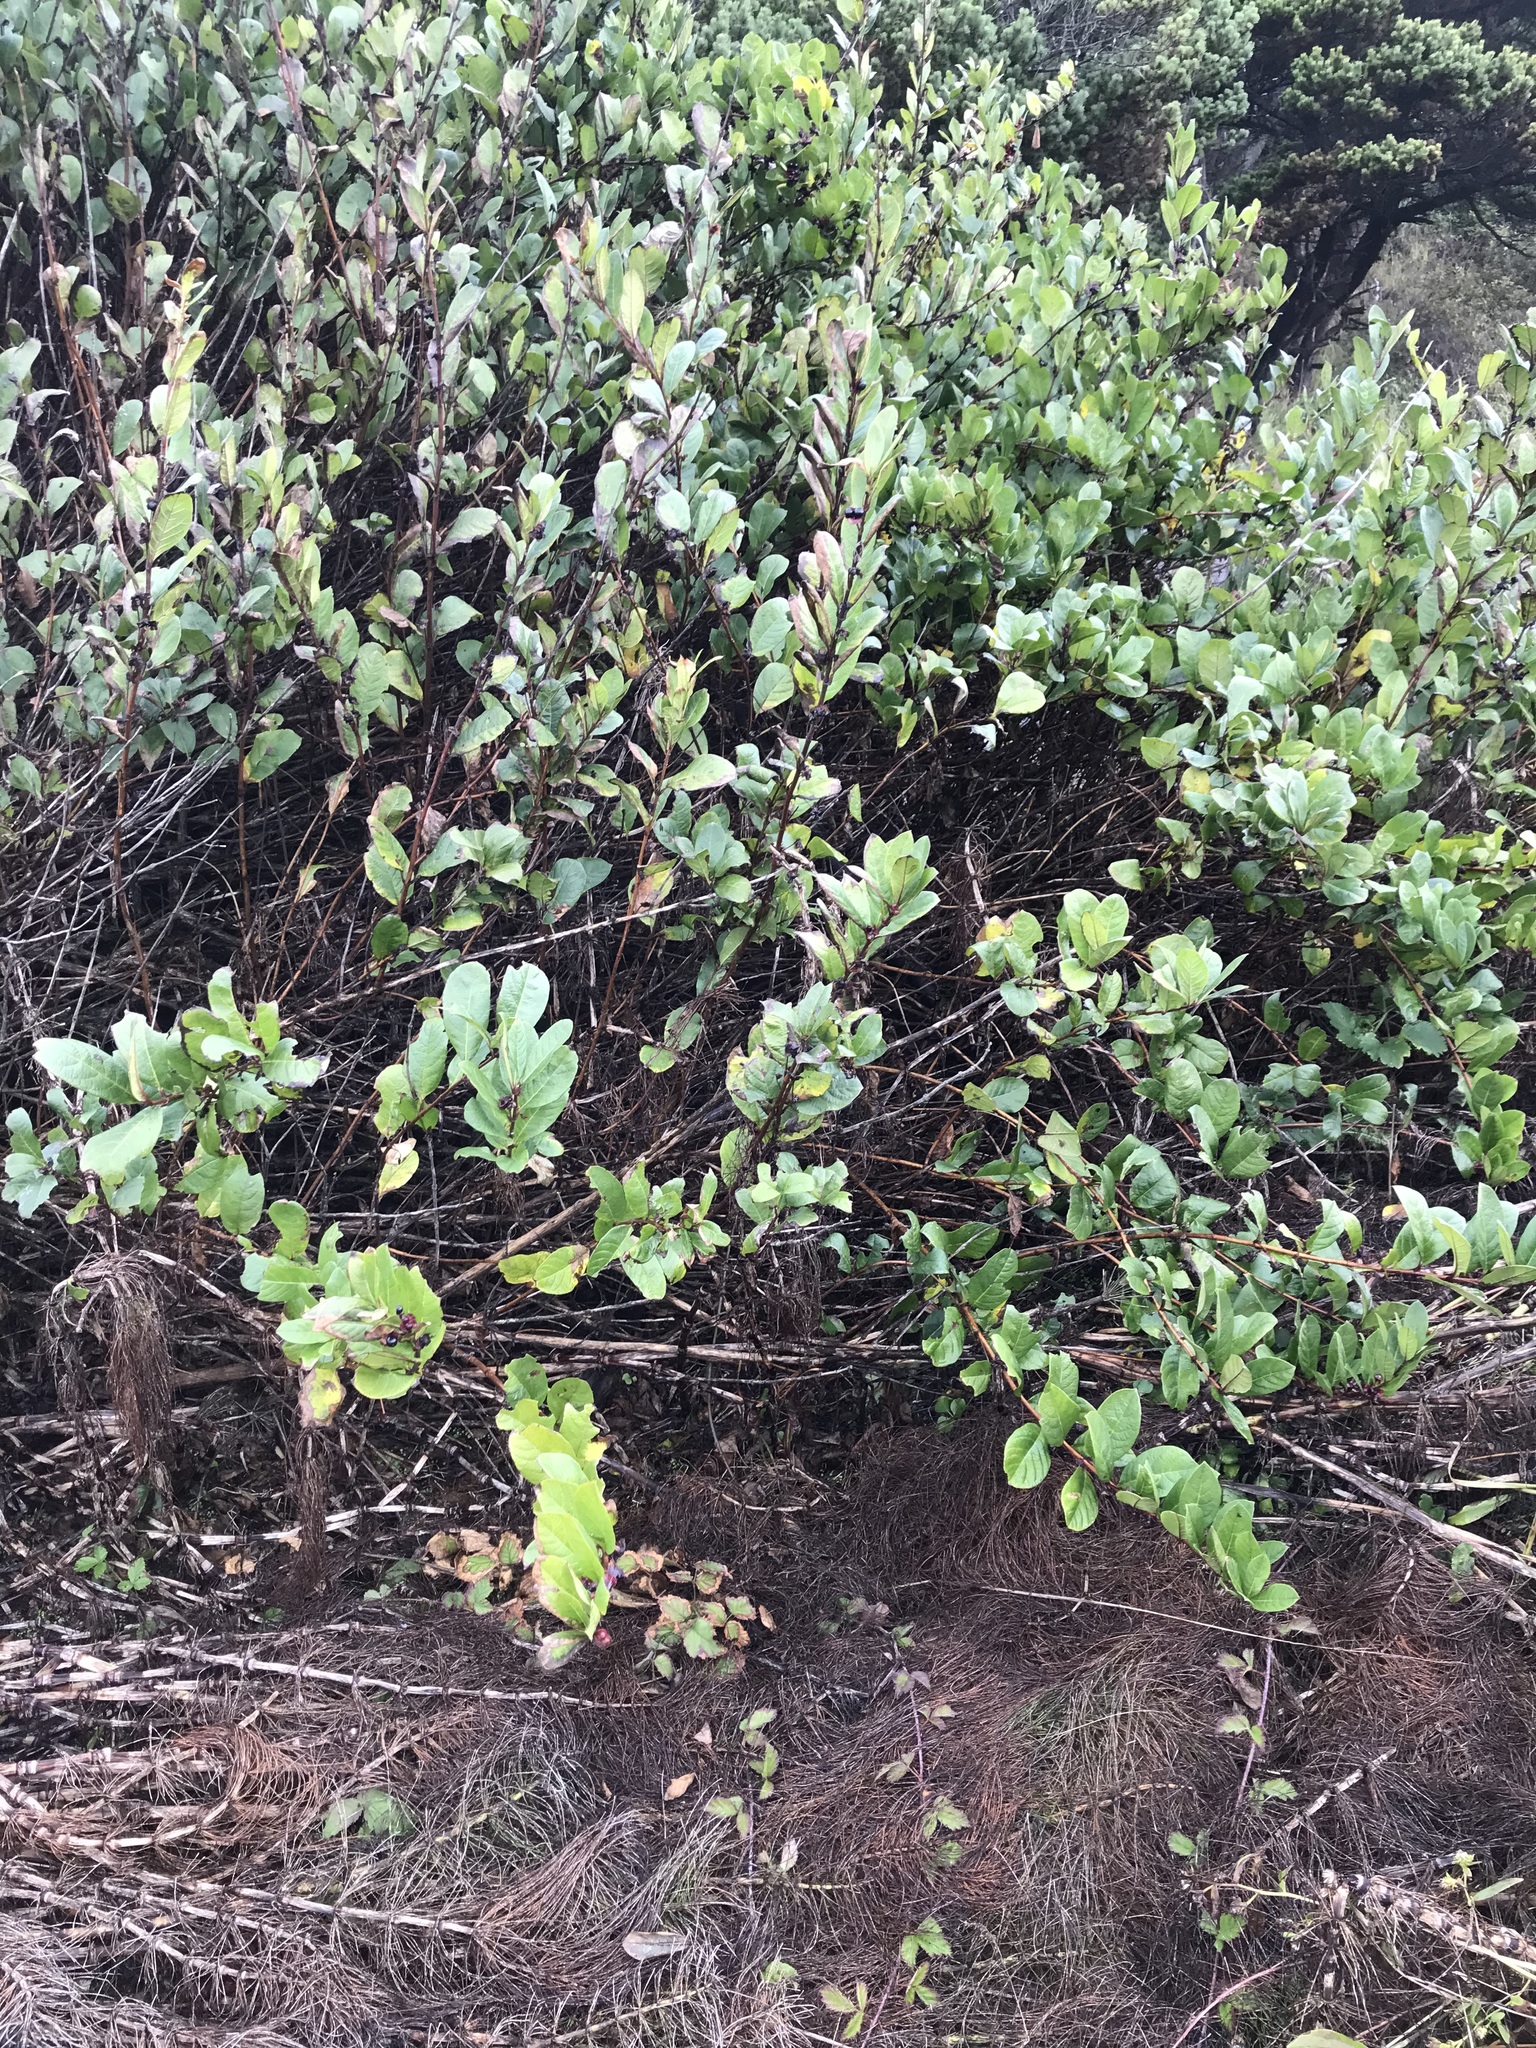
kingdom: Plantae
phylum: Tracheophyta
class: Magnoliopsida
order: Ericales
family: Ericaceae
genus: Gaultheria
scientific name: Gaultheria shallon
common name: Shallon
